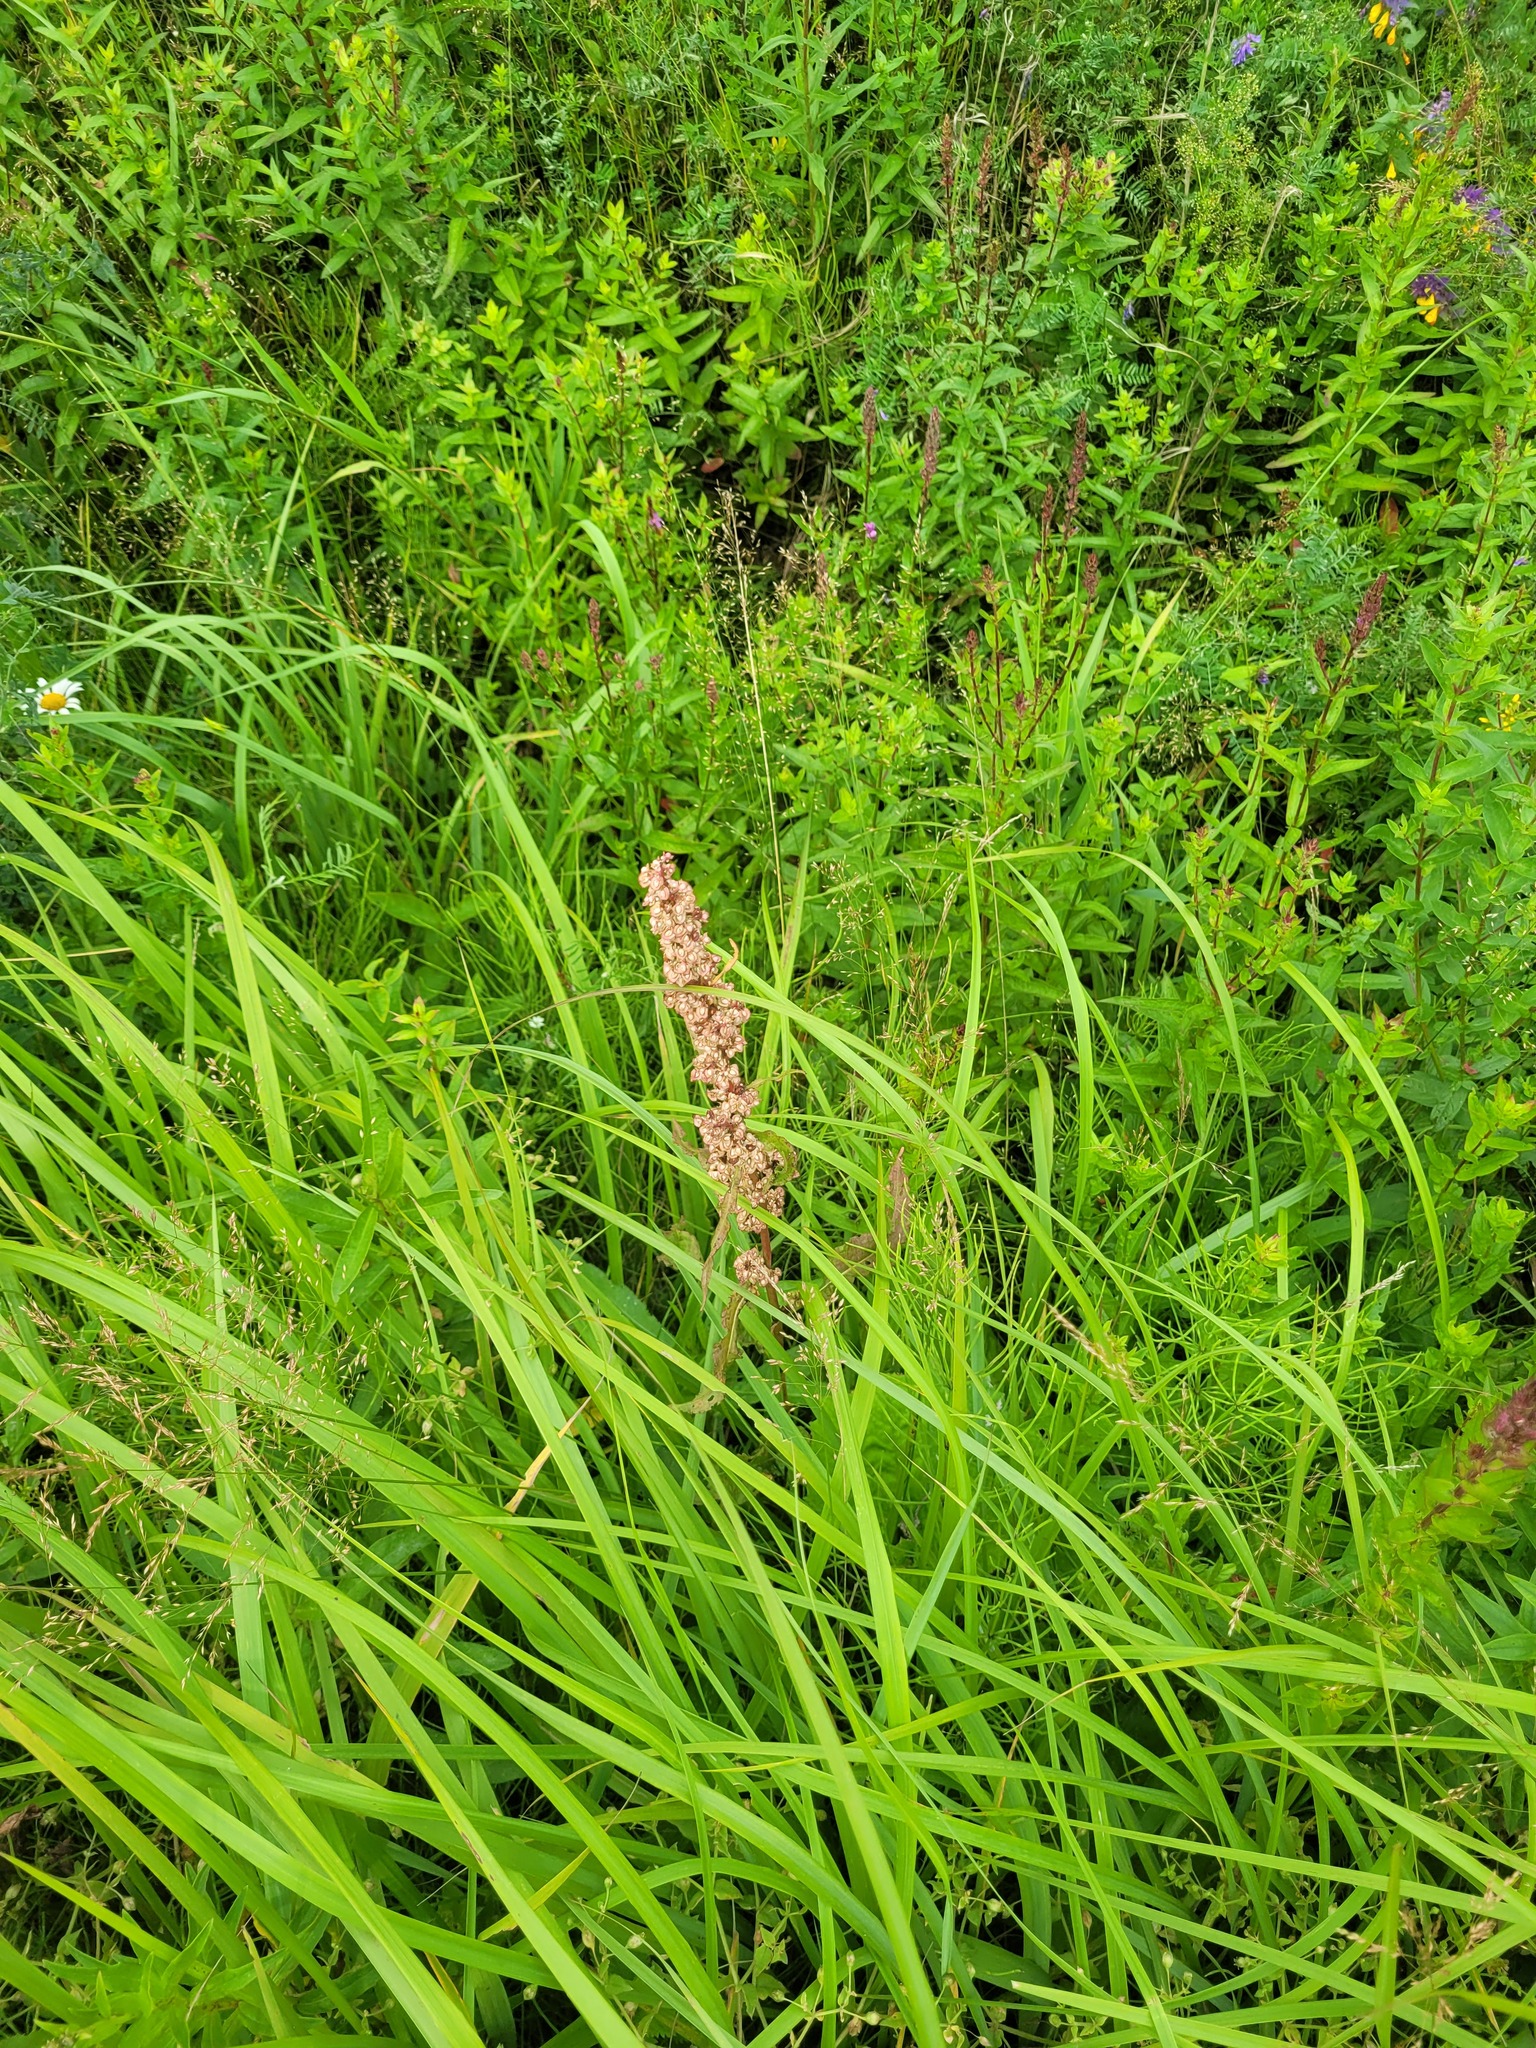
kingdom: Plantae
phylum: Tracheophyta
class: Magnoliopsida
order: Caryophyllales
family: Polygonaceae
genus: Rumex
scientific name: Rumex crispus
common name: Curled dock
